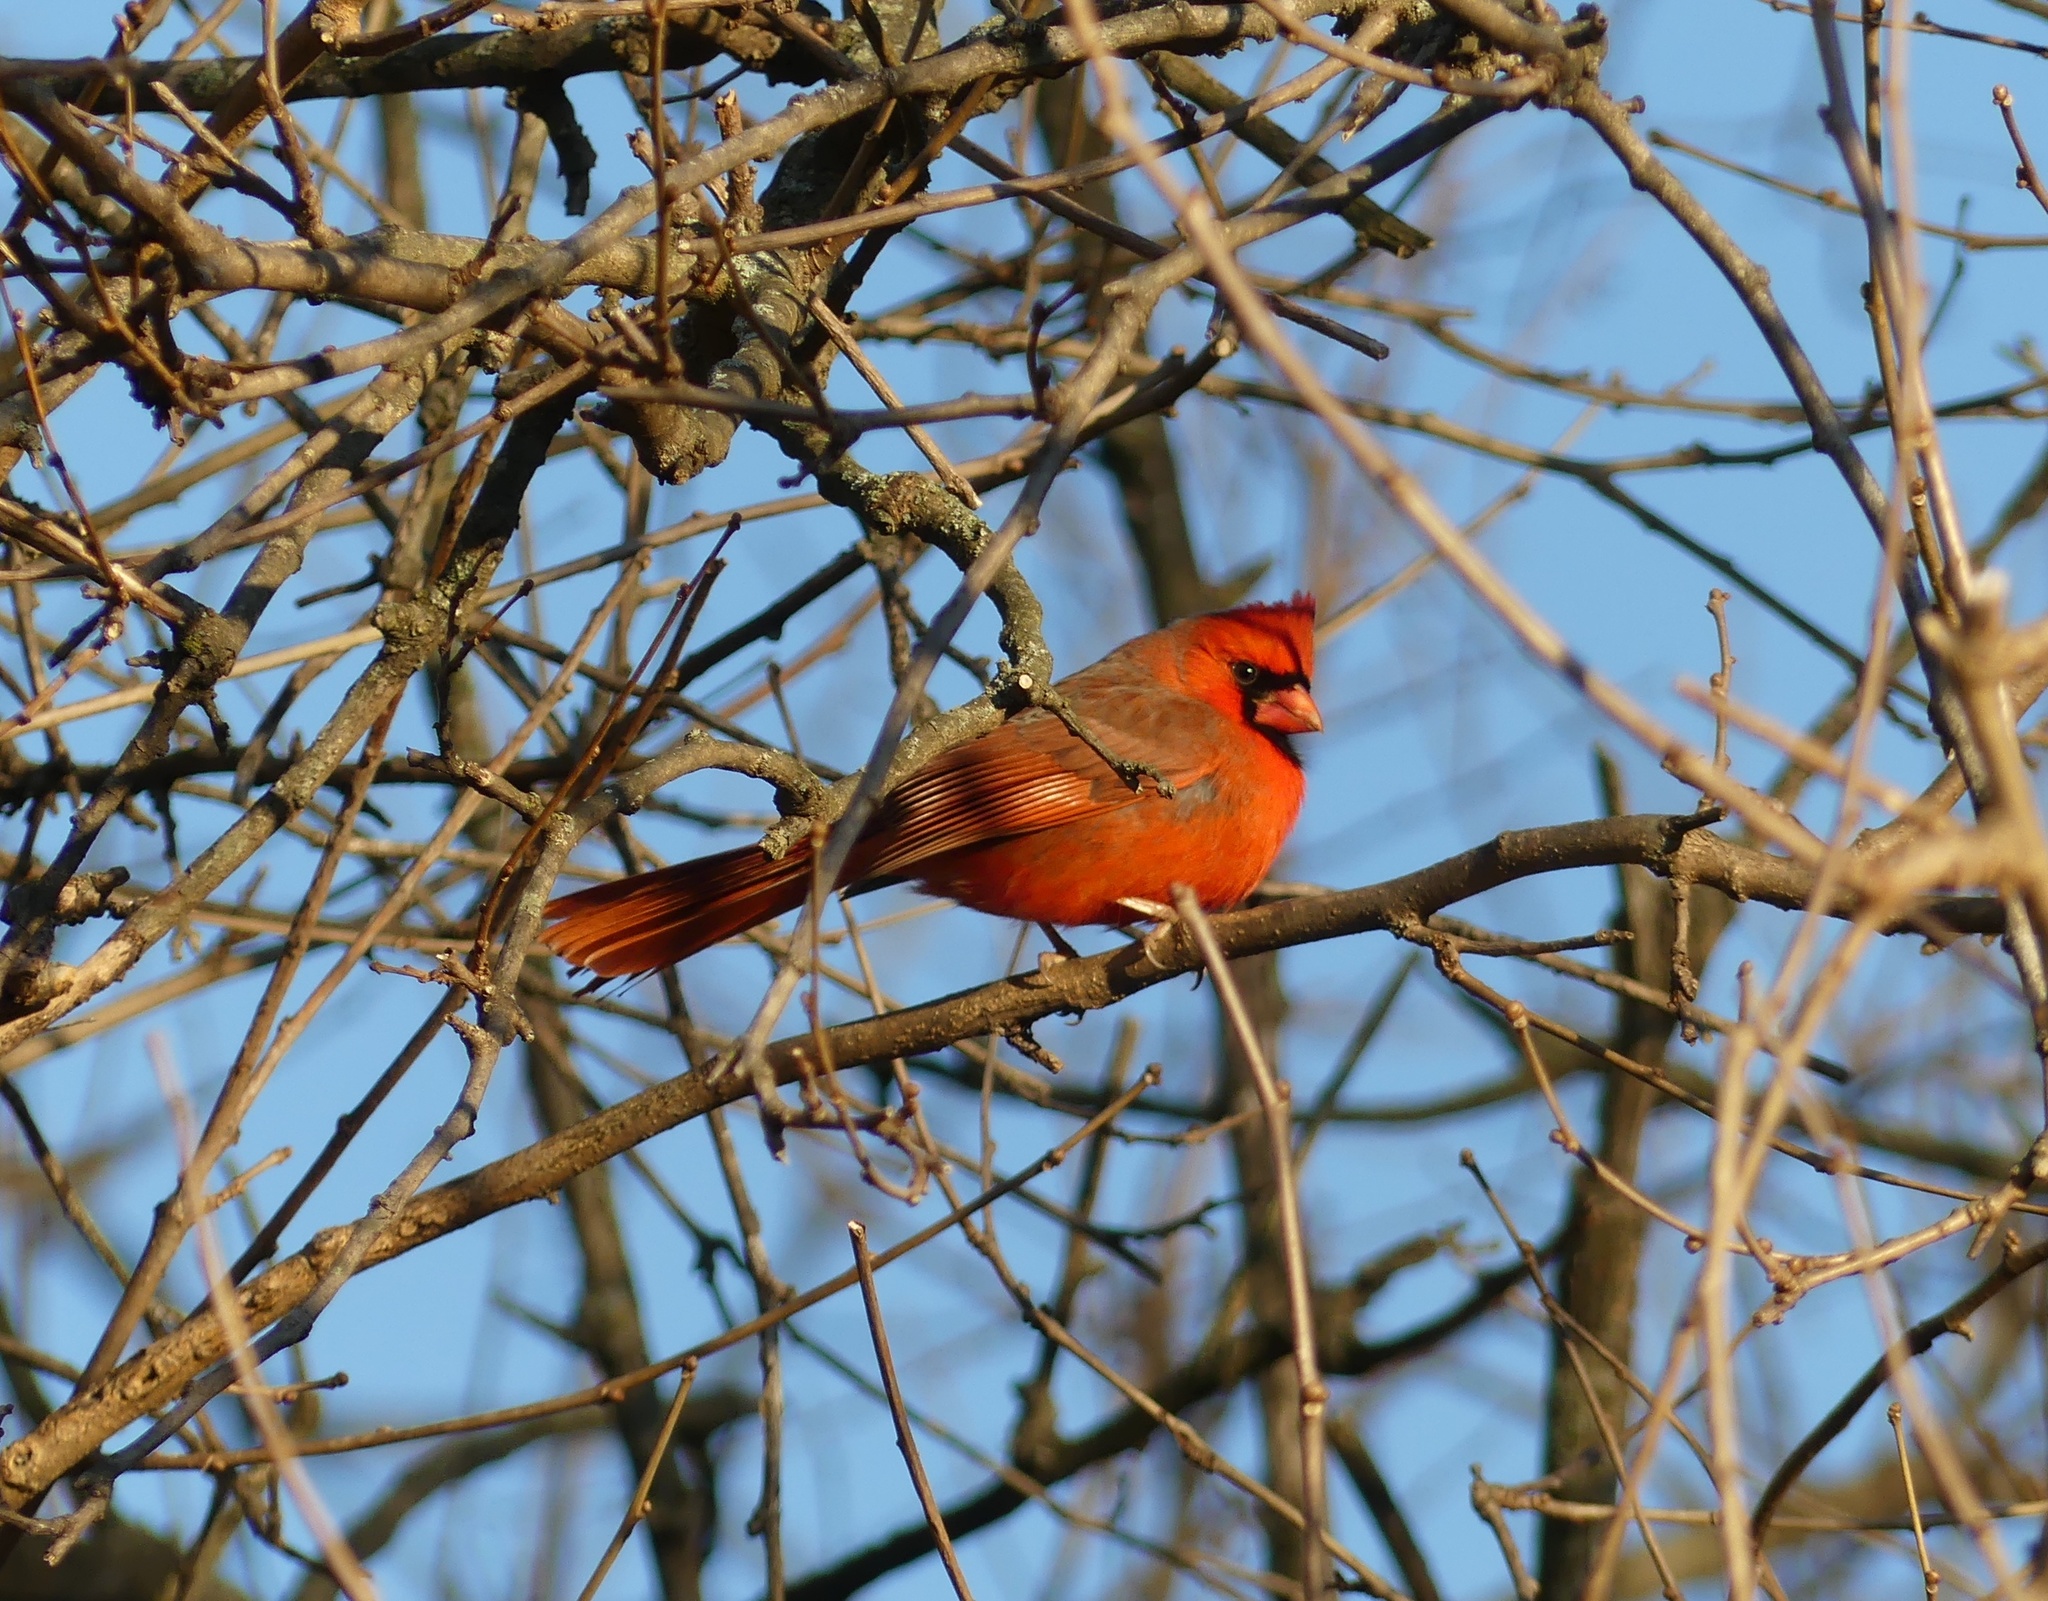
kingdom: Animalia
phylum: Chordata
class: Aves
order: Passeriformes
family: Cardinalidae
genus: Cardinalis
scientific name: Cardinalis cardinalis
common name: Northern cardinal
